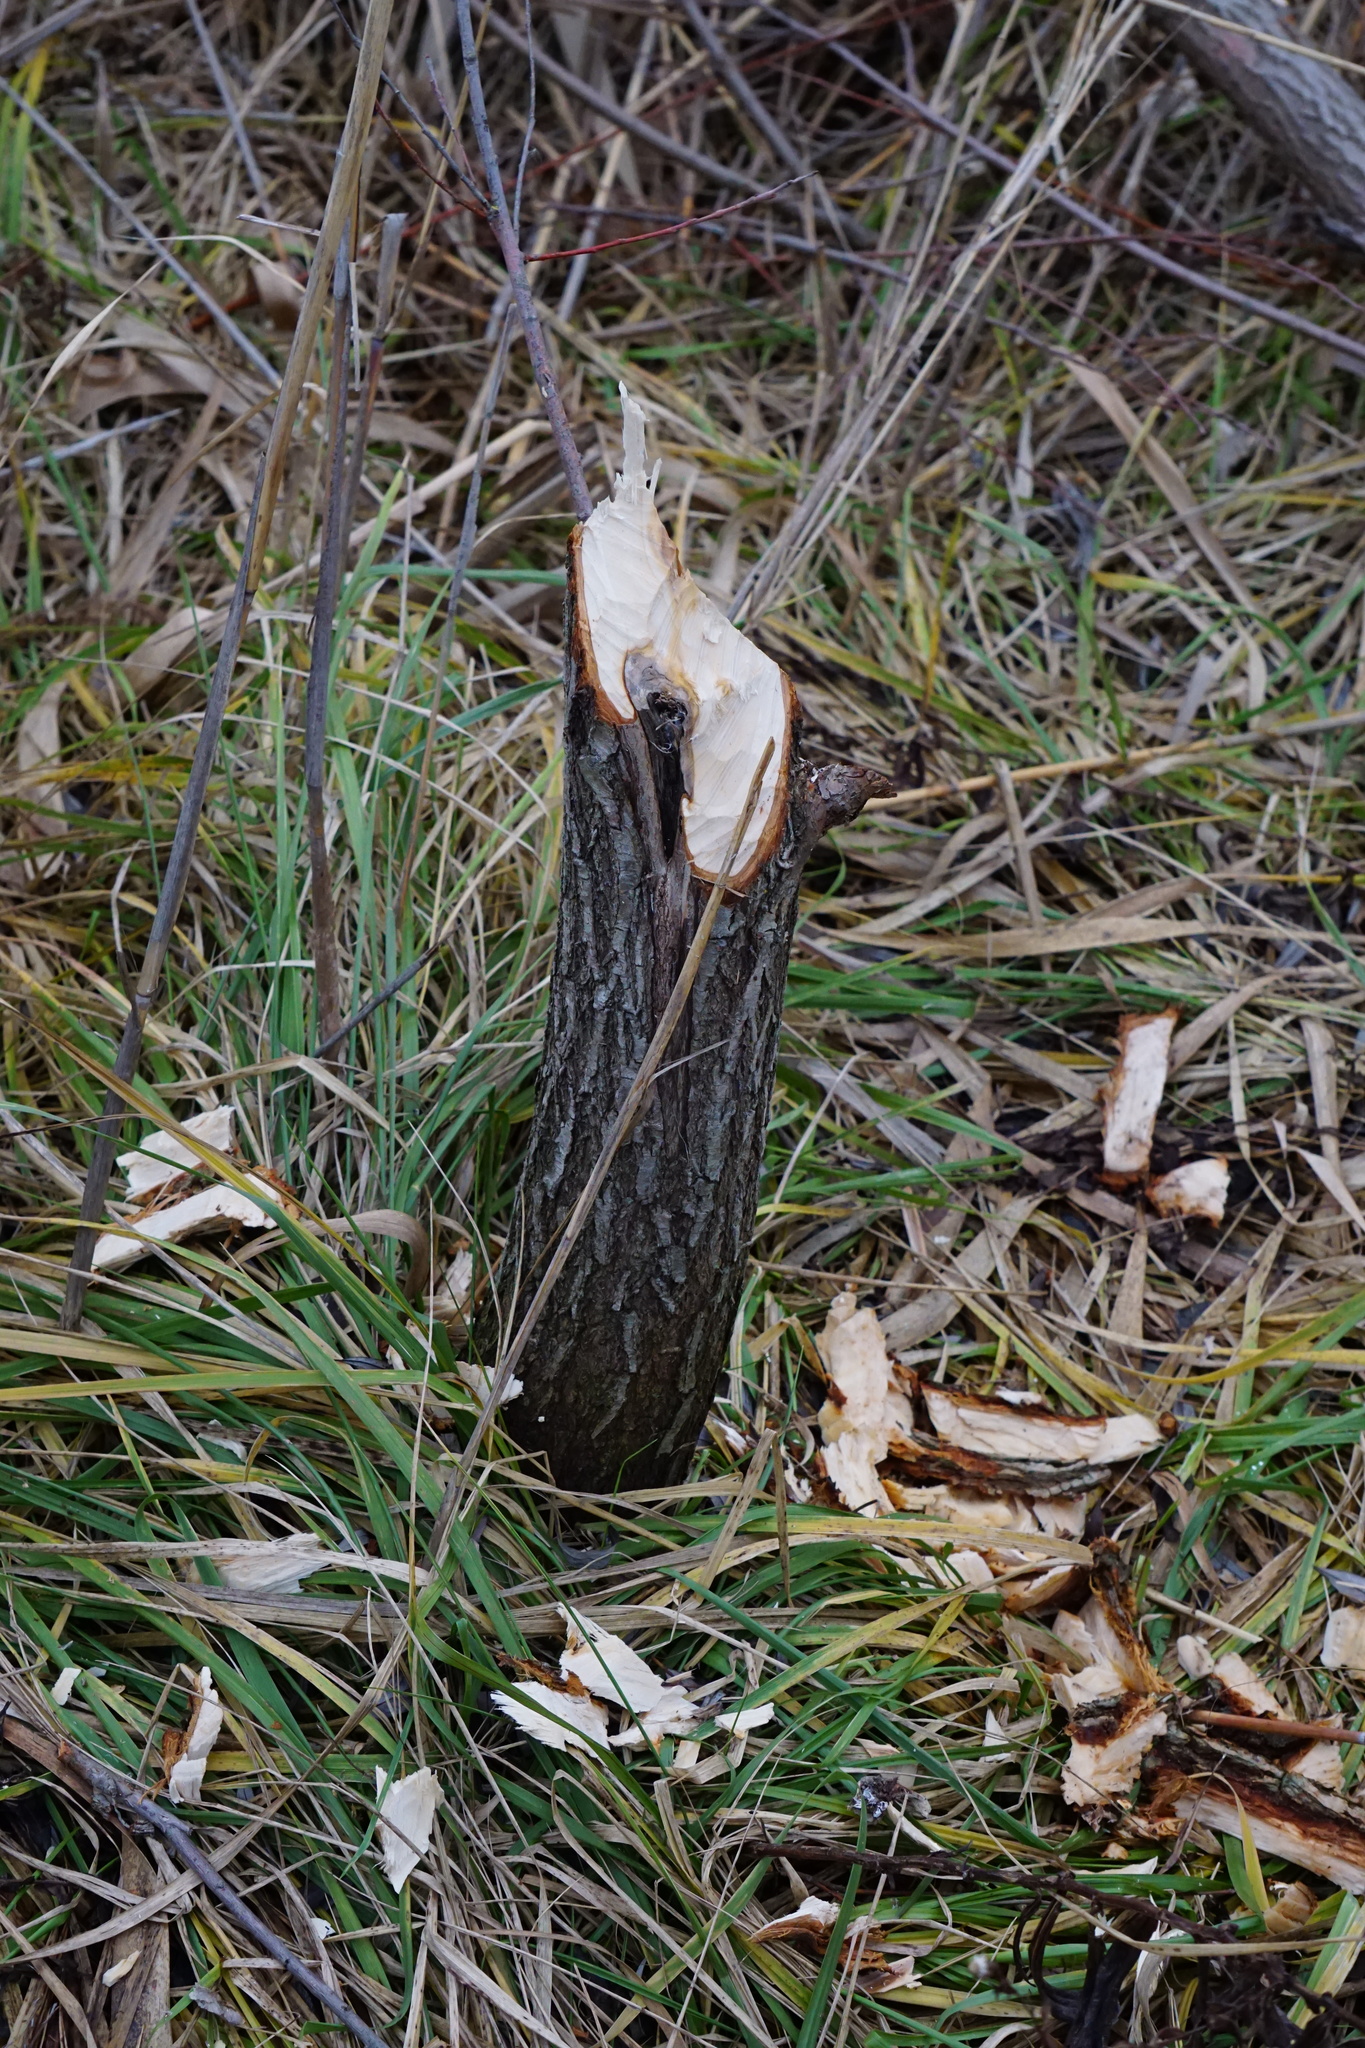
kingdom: Animalia
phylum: Chordata
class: Mammalia
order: Rodentia
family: Castoridae
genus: Castor
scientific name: Castor fiber
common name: Eurasian beaver
